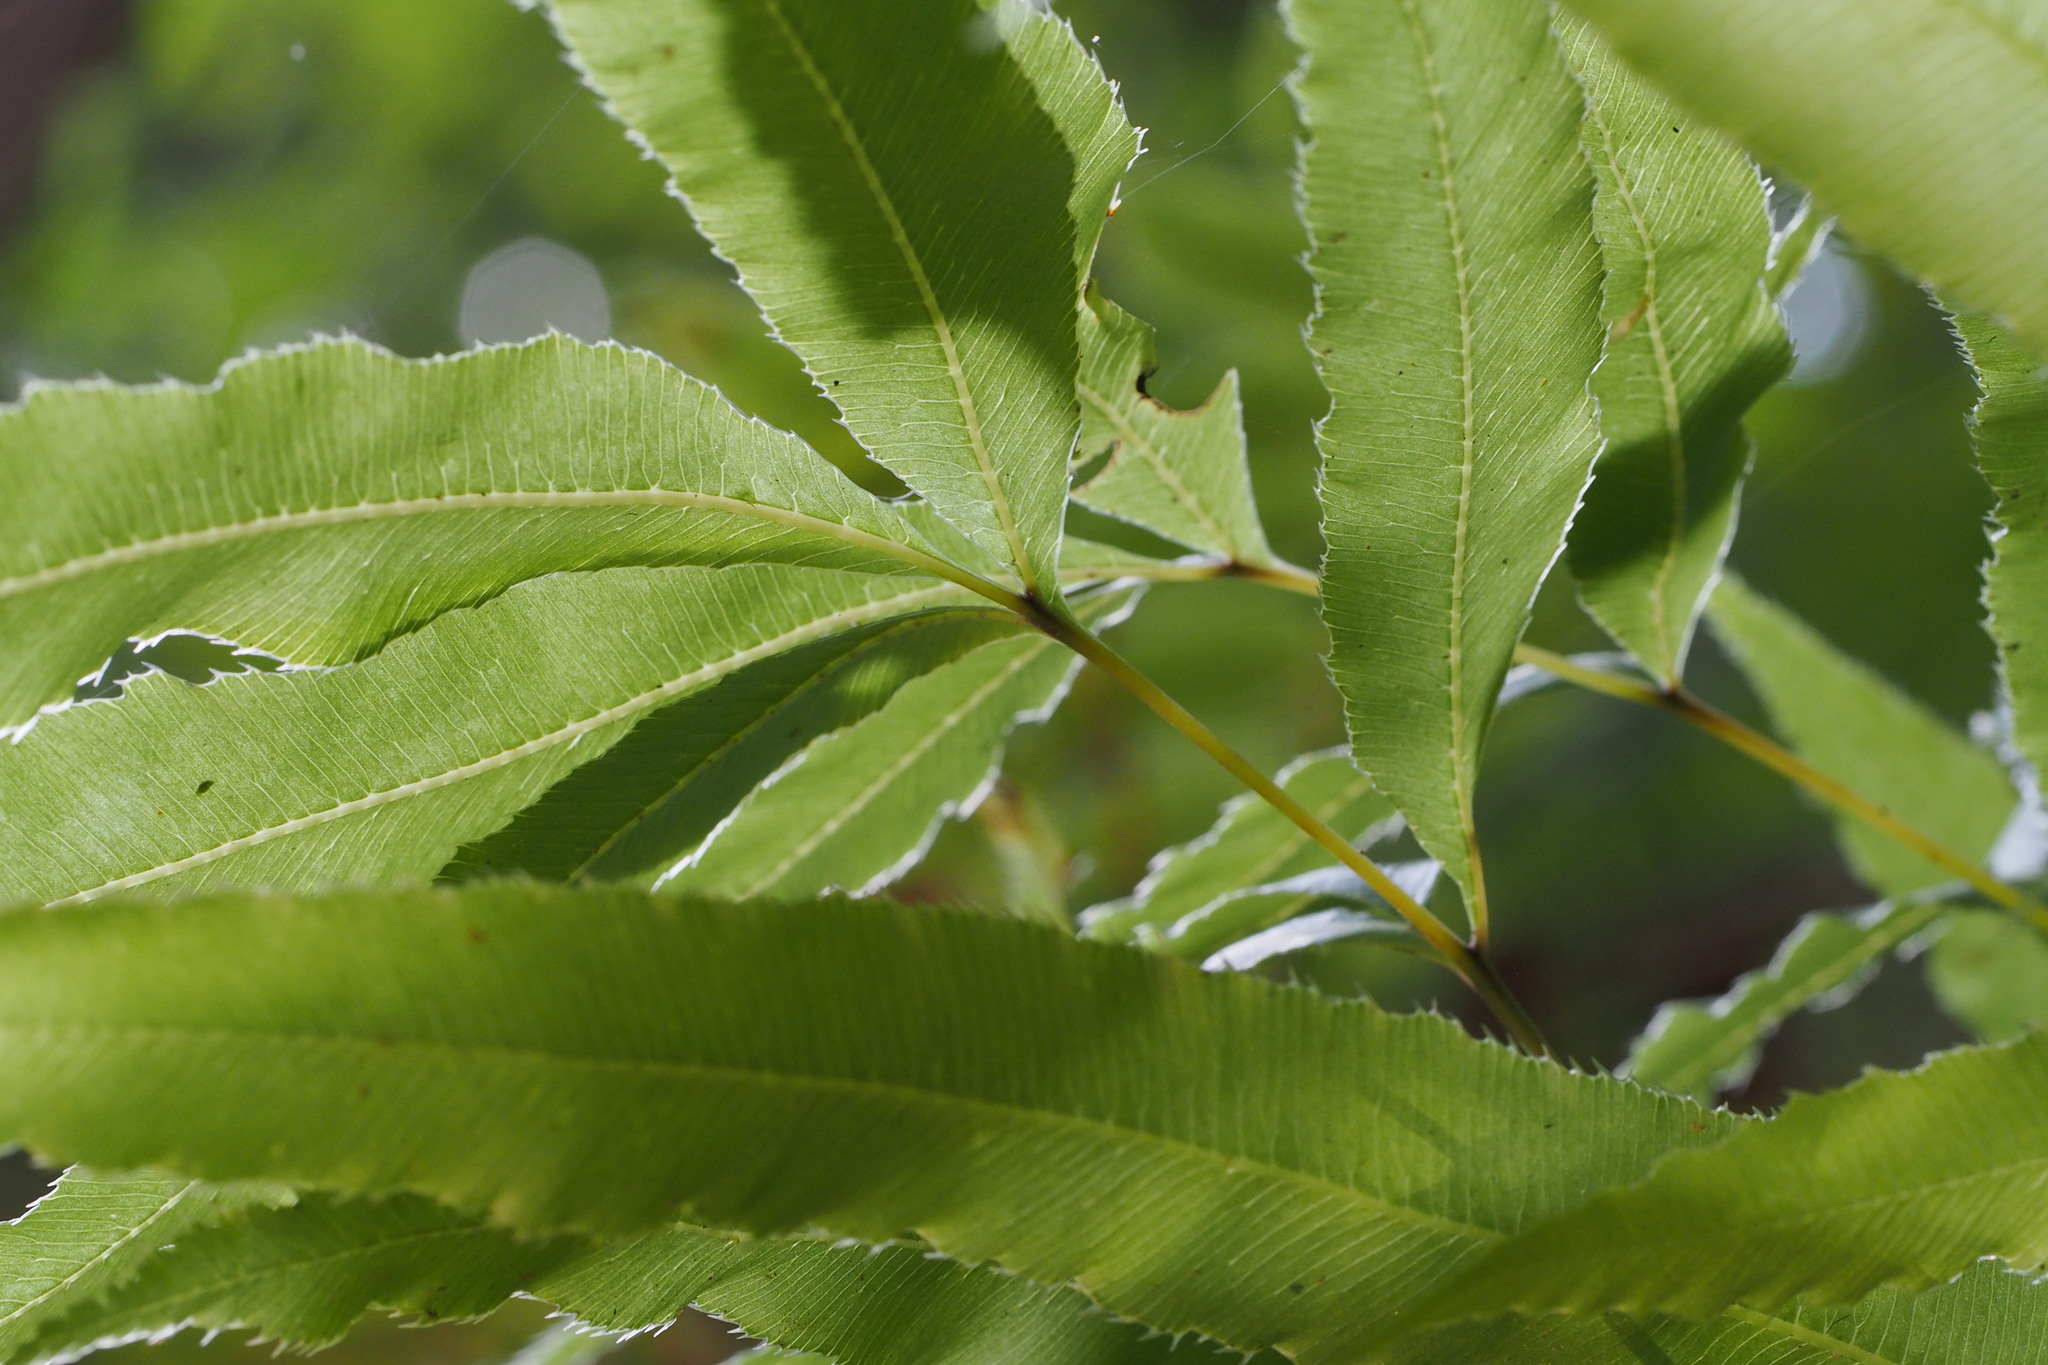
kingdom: Plantae
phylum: Tracheophyta
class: Polypodiopsida
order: Polypodiales
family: Pteridaceae
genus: Pteris
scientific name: Pteris cretica
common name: Ribbon fern
